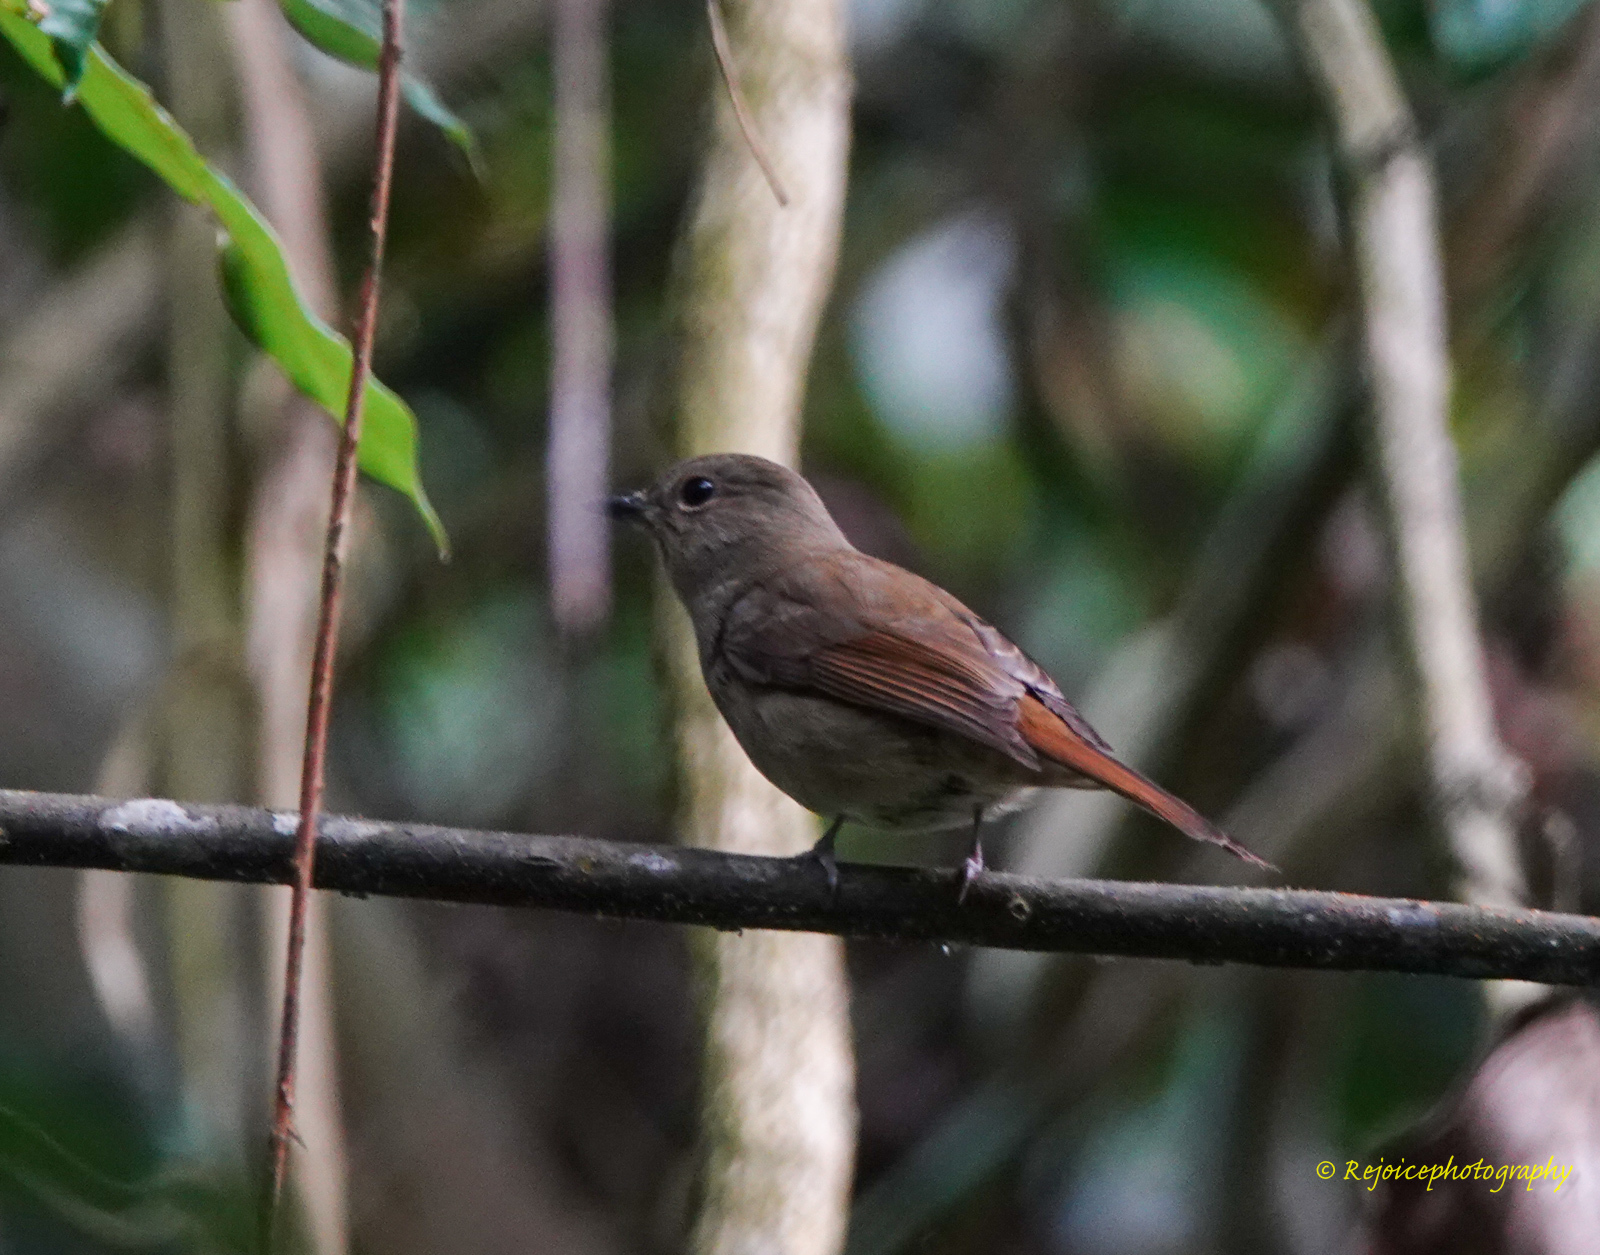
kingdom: Animalia
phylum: Chordata
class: Aves
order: Passeriformes
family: Muscicapidae
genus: Cyornis
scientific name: Cyornis unicolor
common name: Pale blue flycatcher
